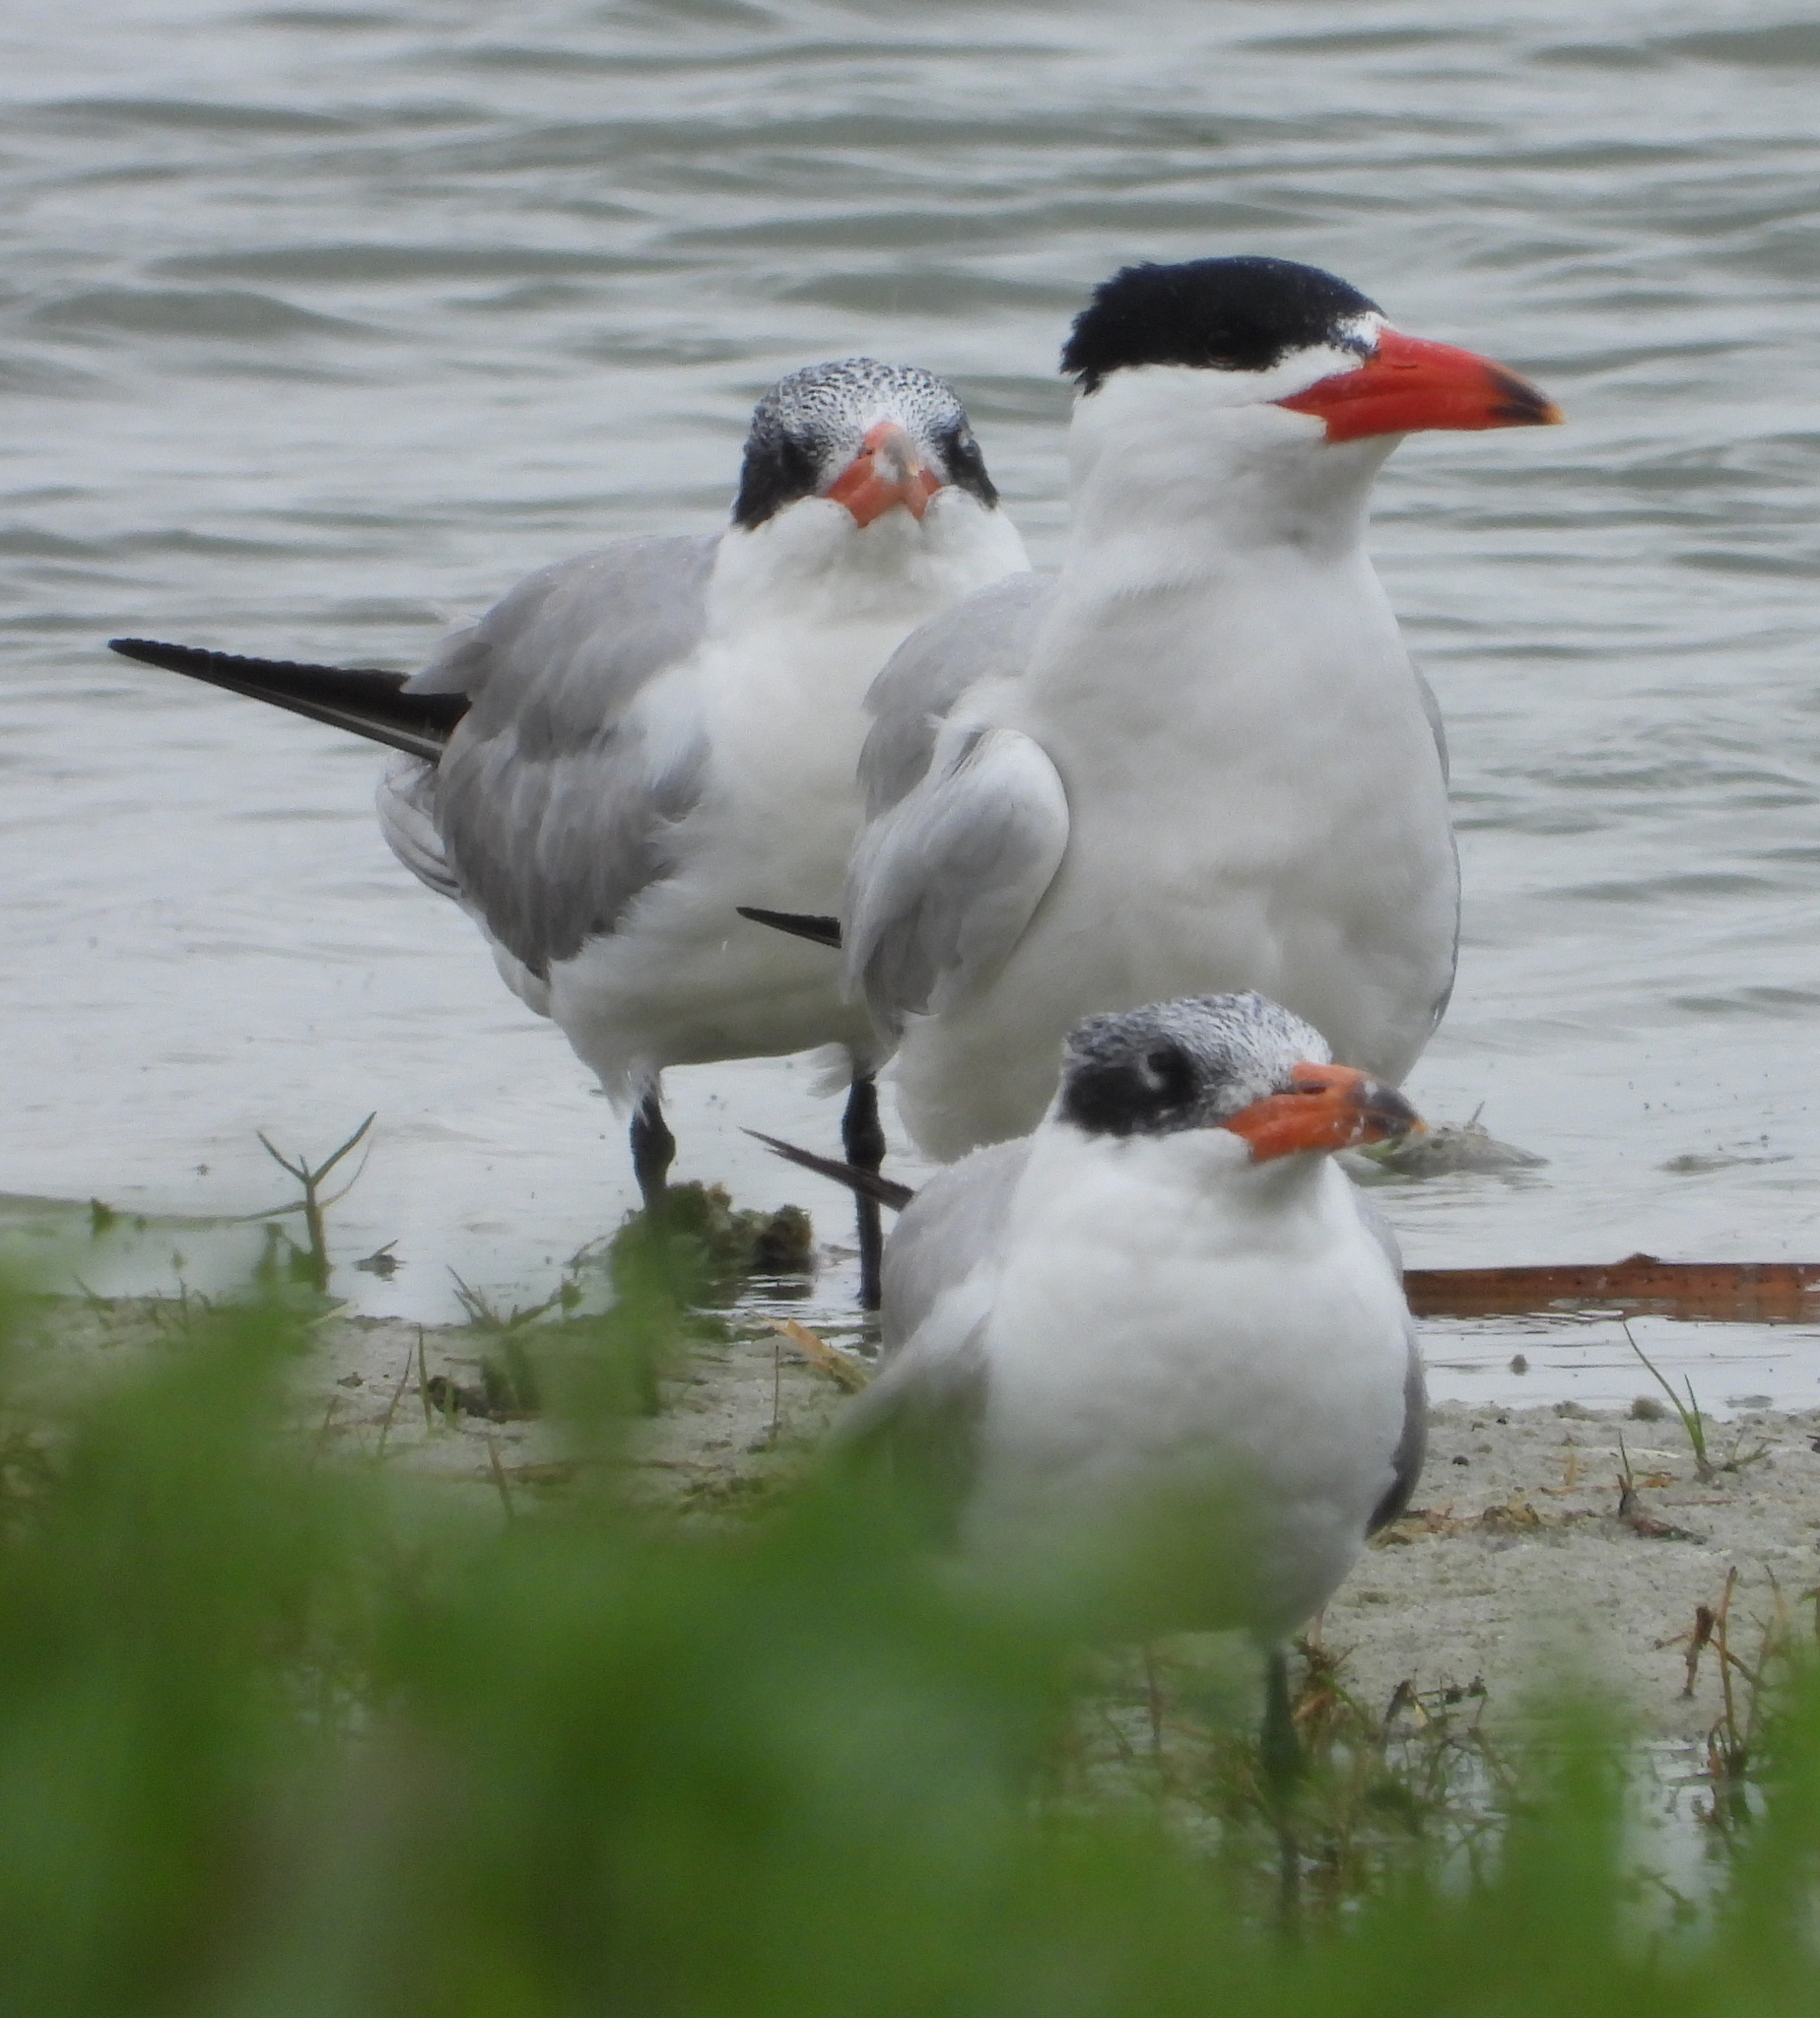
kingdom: Animalia
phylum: Chordata
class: Aves
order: Charadriiformes
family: Laridae
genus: Hydroprogne
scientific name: Hydroprogne caspia
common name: Caspian tern
